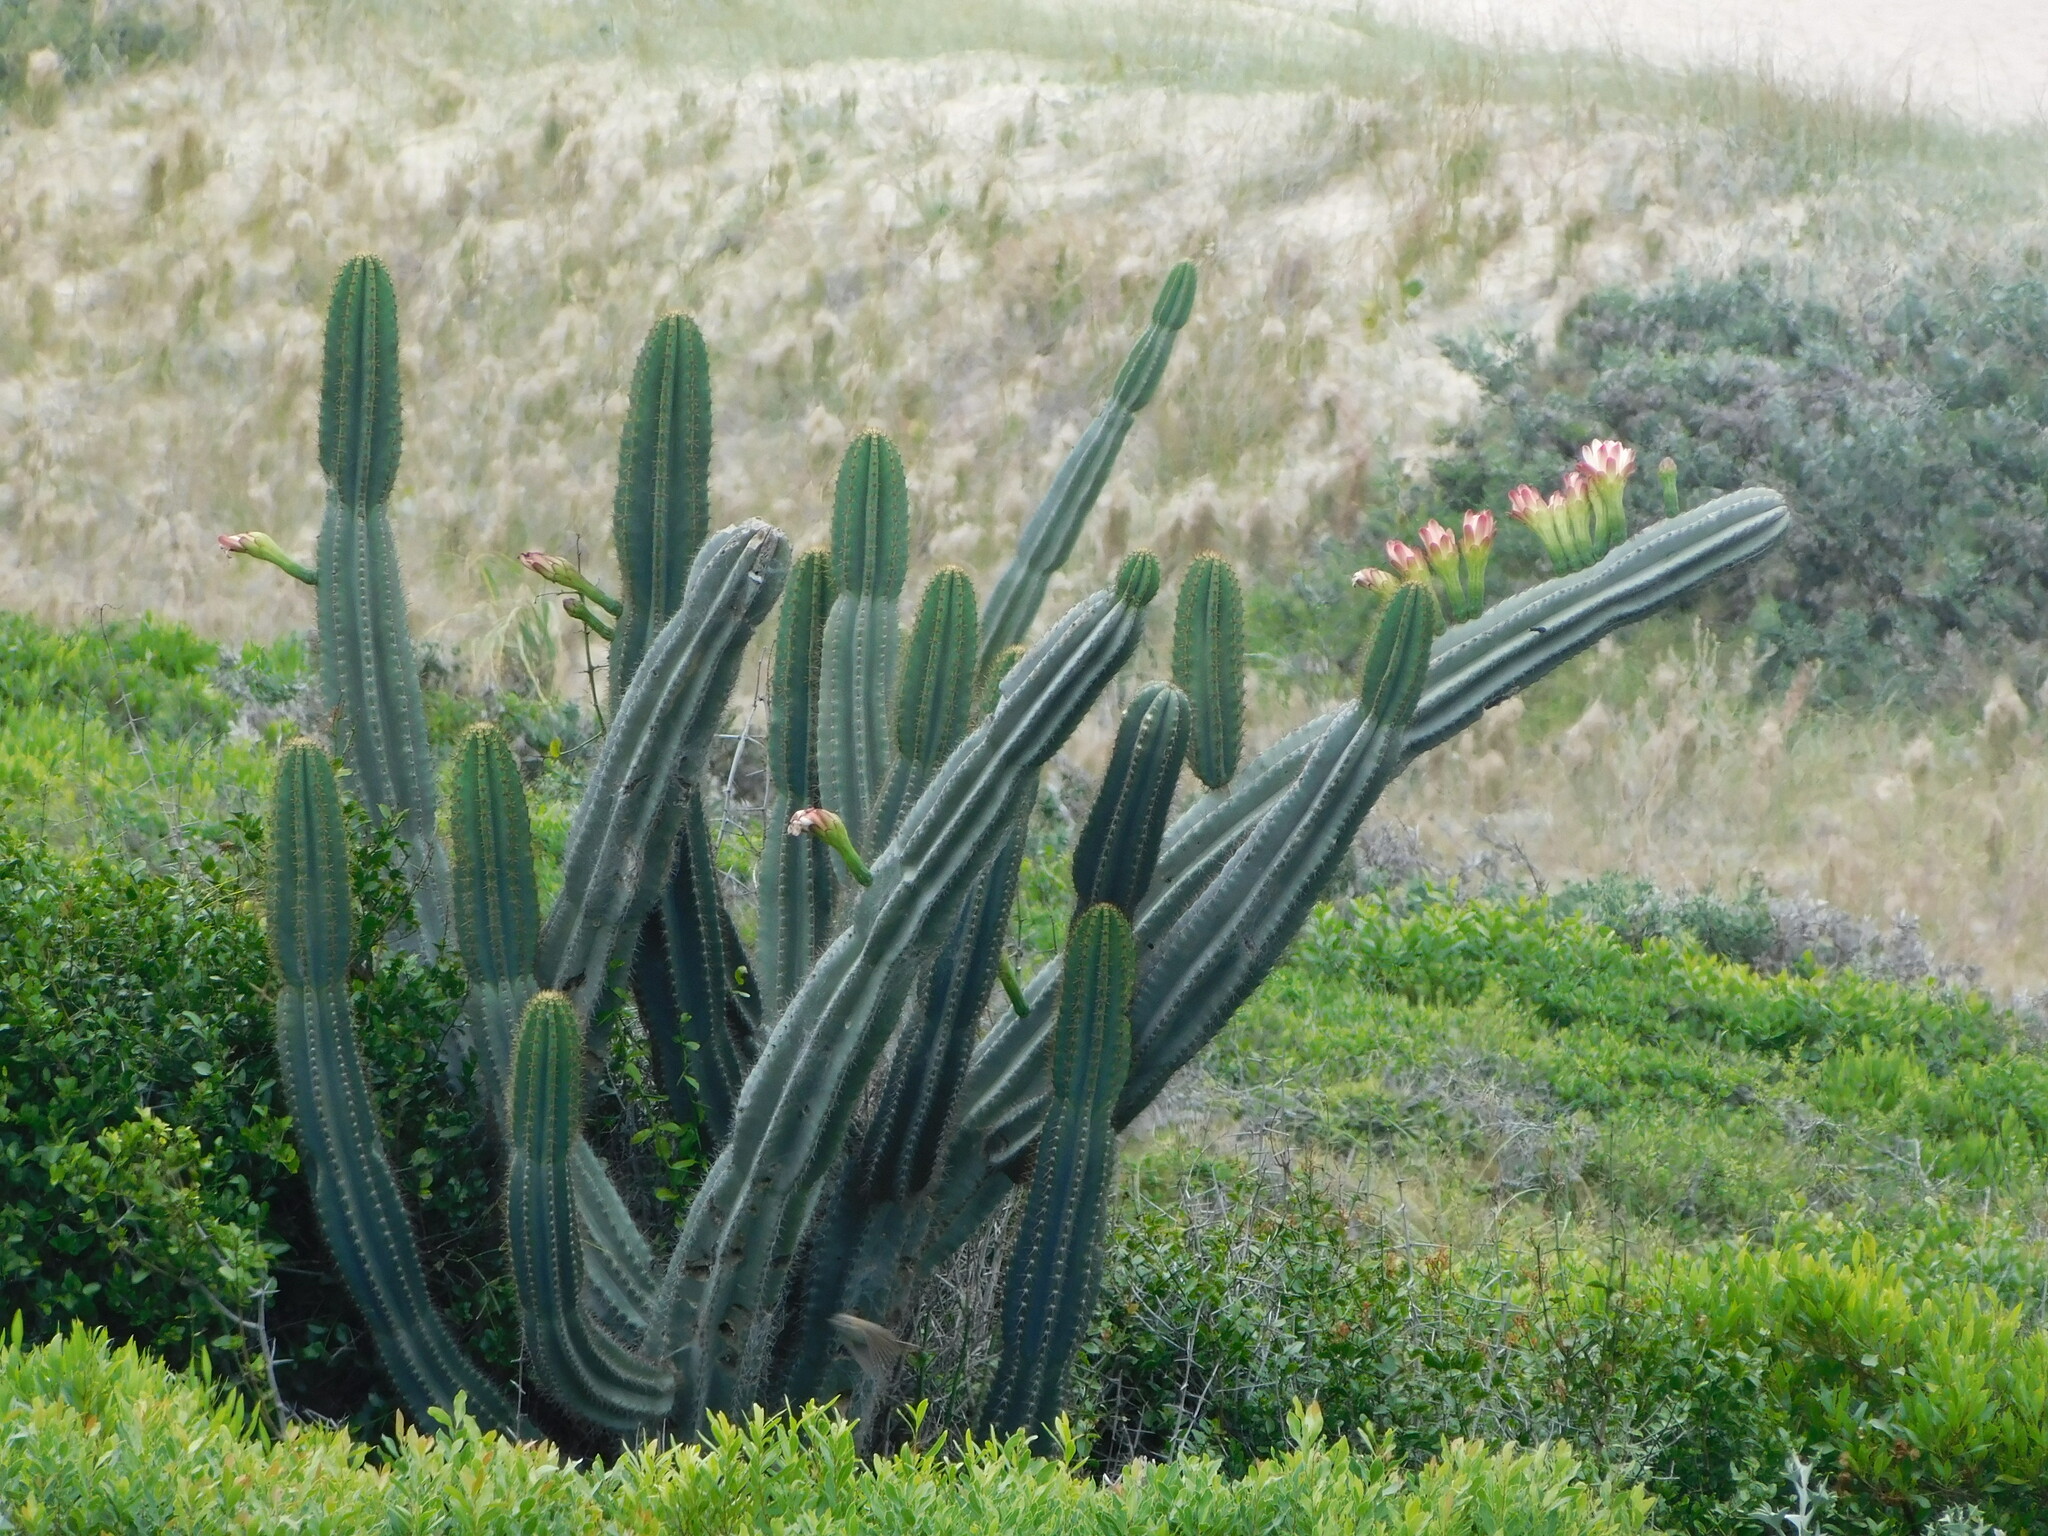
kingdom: Plantae
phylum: Tracheophyta
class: Magnoliopsida
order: Caryophyllales
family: Cactaceae
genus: Cereus
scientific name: Cereus hildmannianus
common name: Hedge cactus
